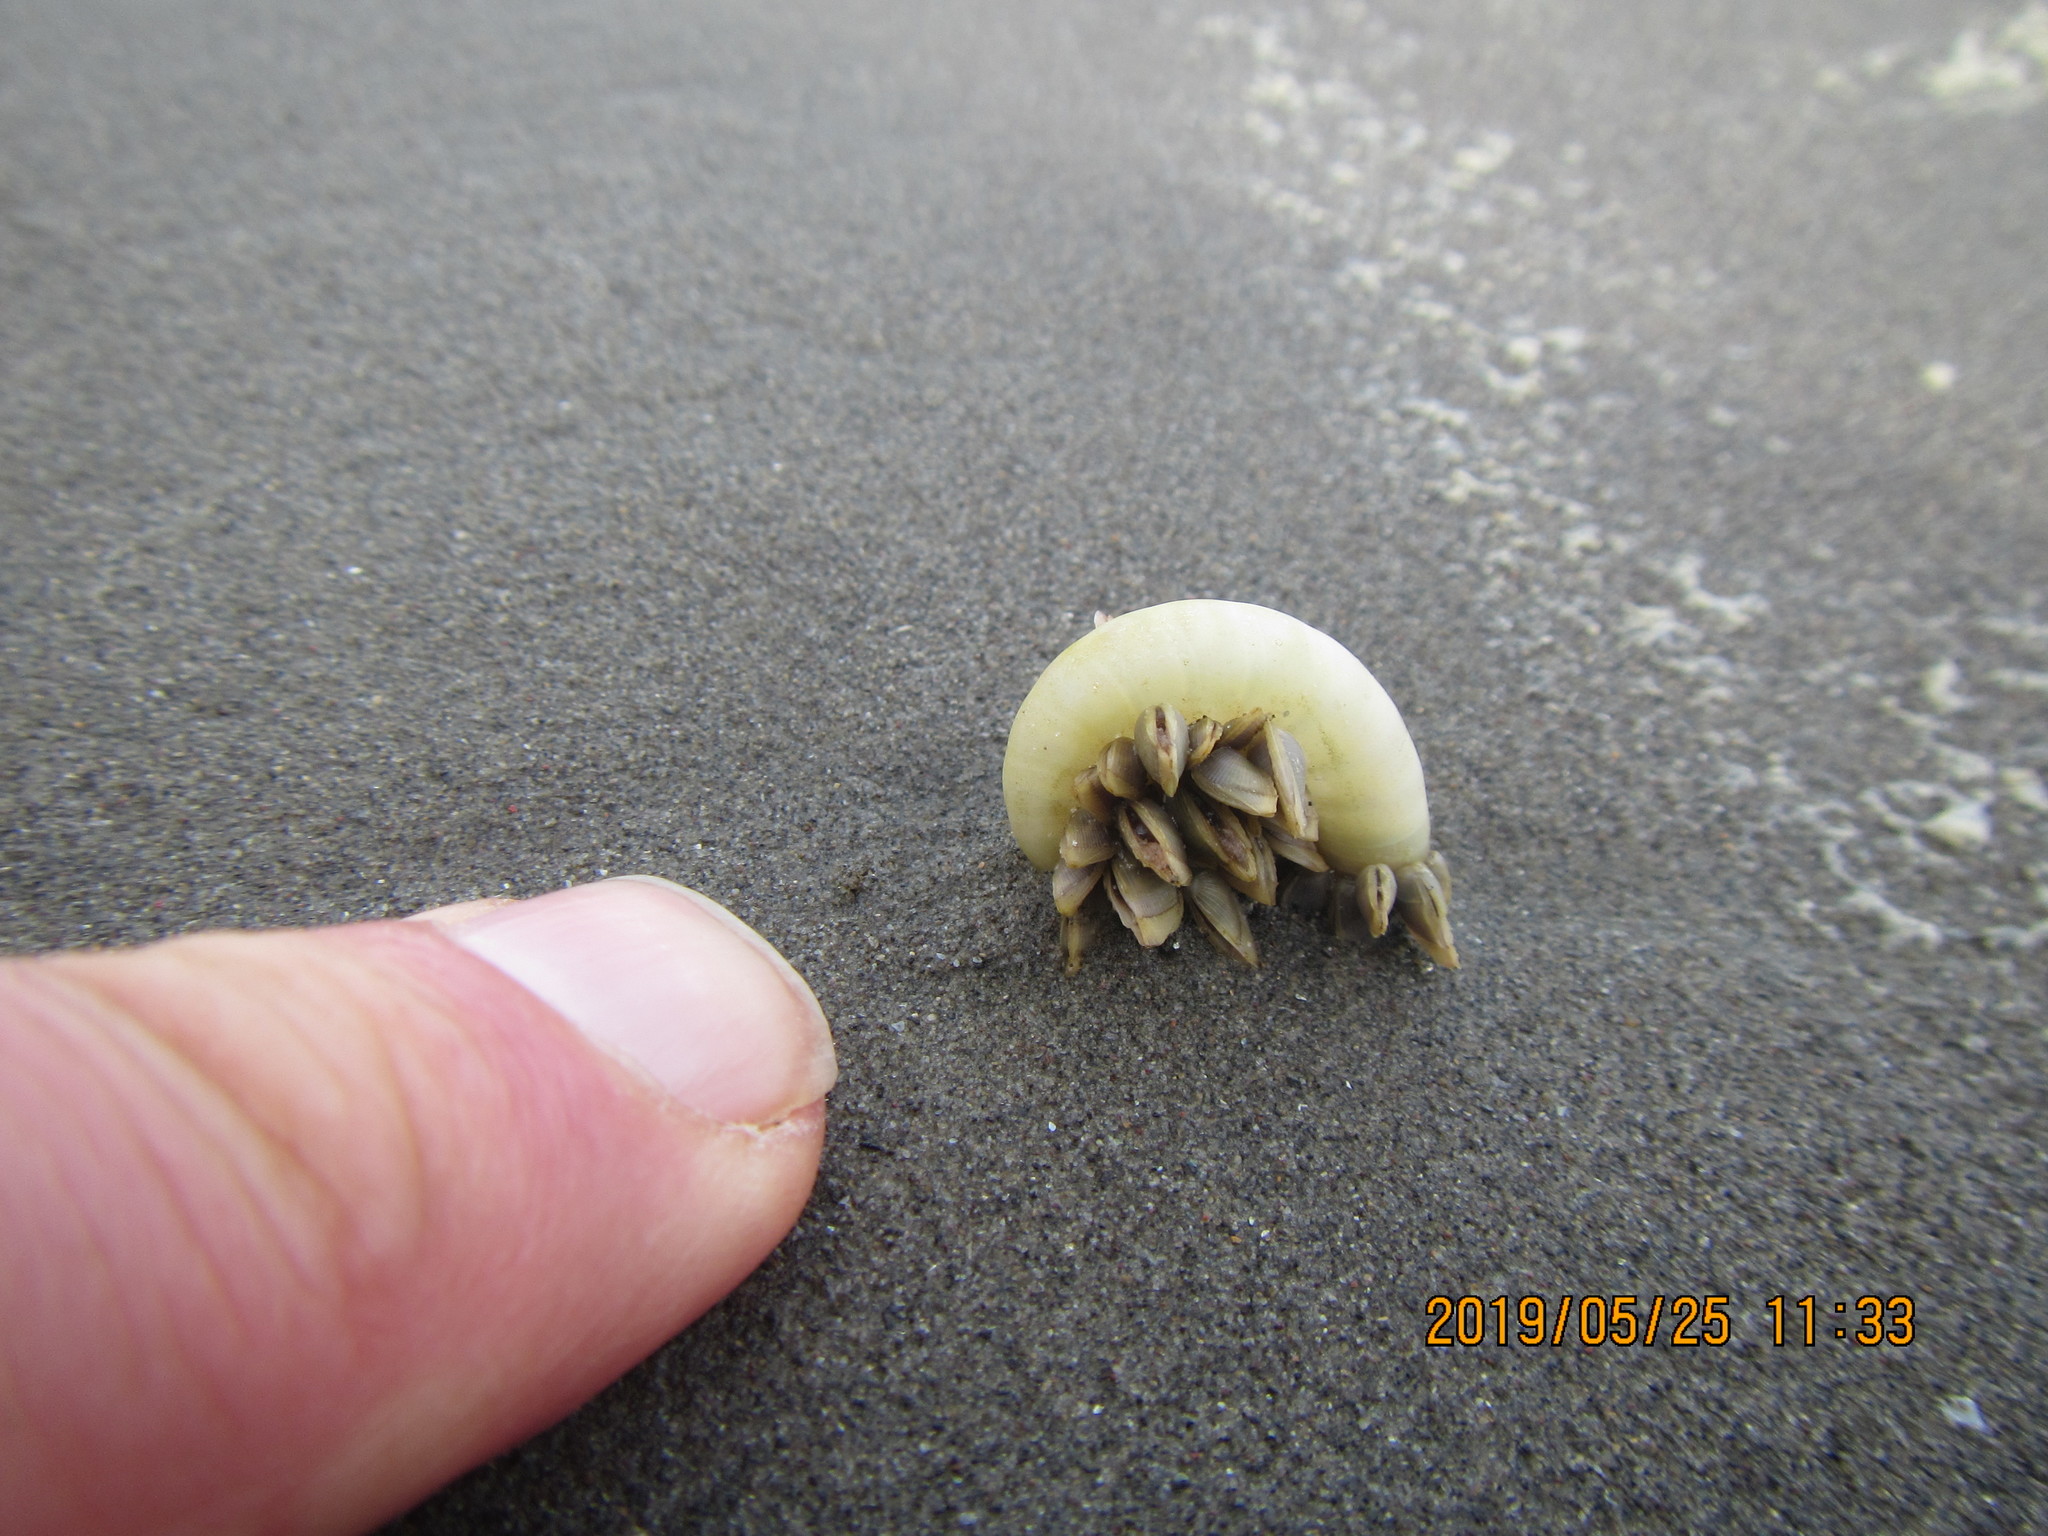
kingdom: Animalia
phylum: Mollusca
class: Cephalopoda
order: Spirulida
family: Spirulidae
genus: Spirula
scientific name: Spirula spirula
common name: Ram's horn squid
